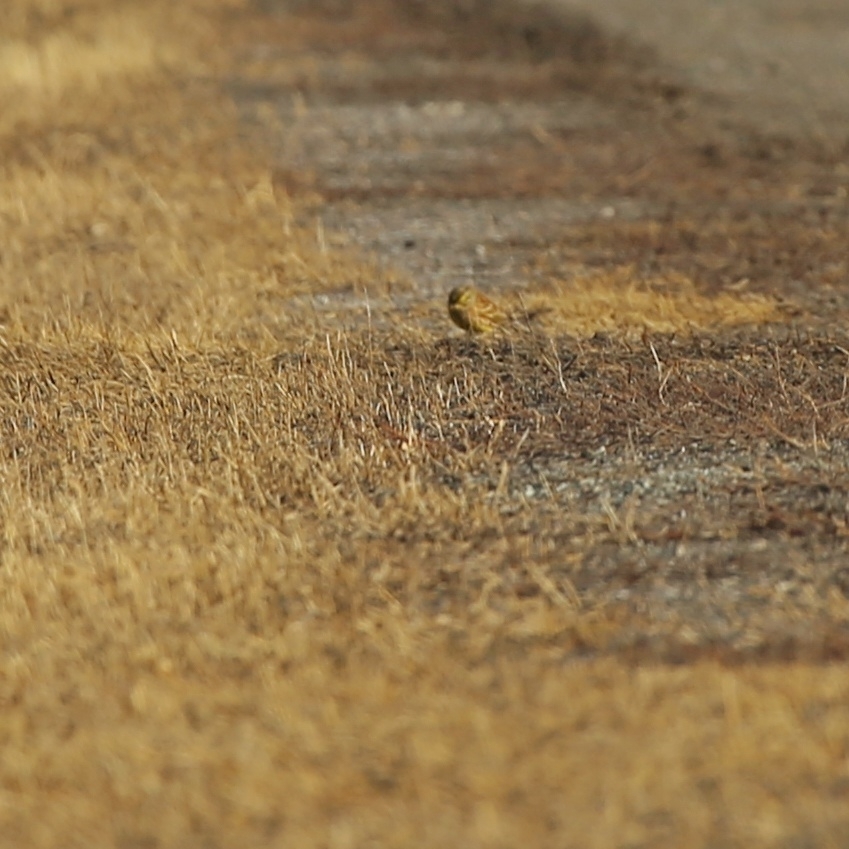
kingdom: Animalia
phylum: Chordata
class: Aves
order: Passeriformes
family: Emberizidae
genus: Emberiza
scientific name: Emberiza citrinella
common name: Yellowhammer
